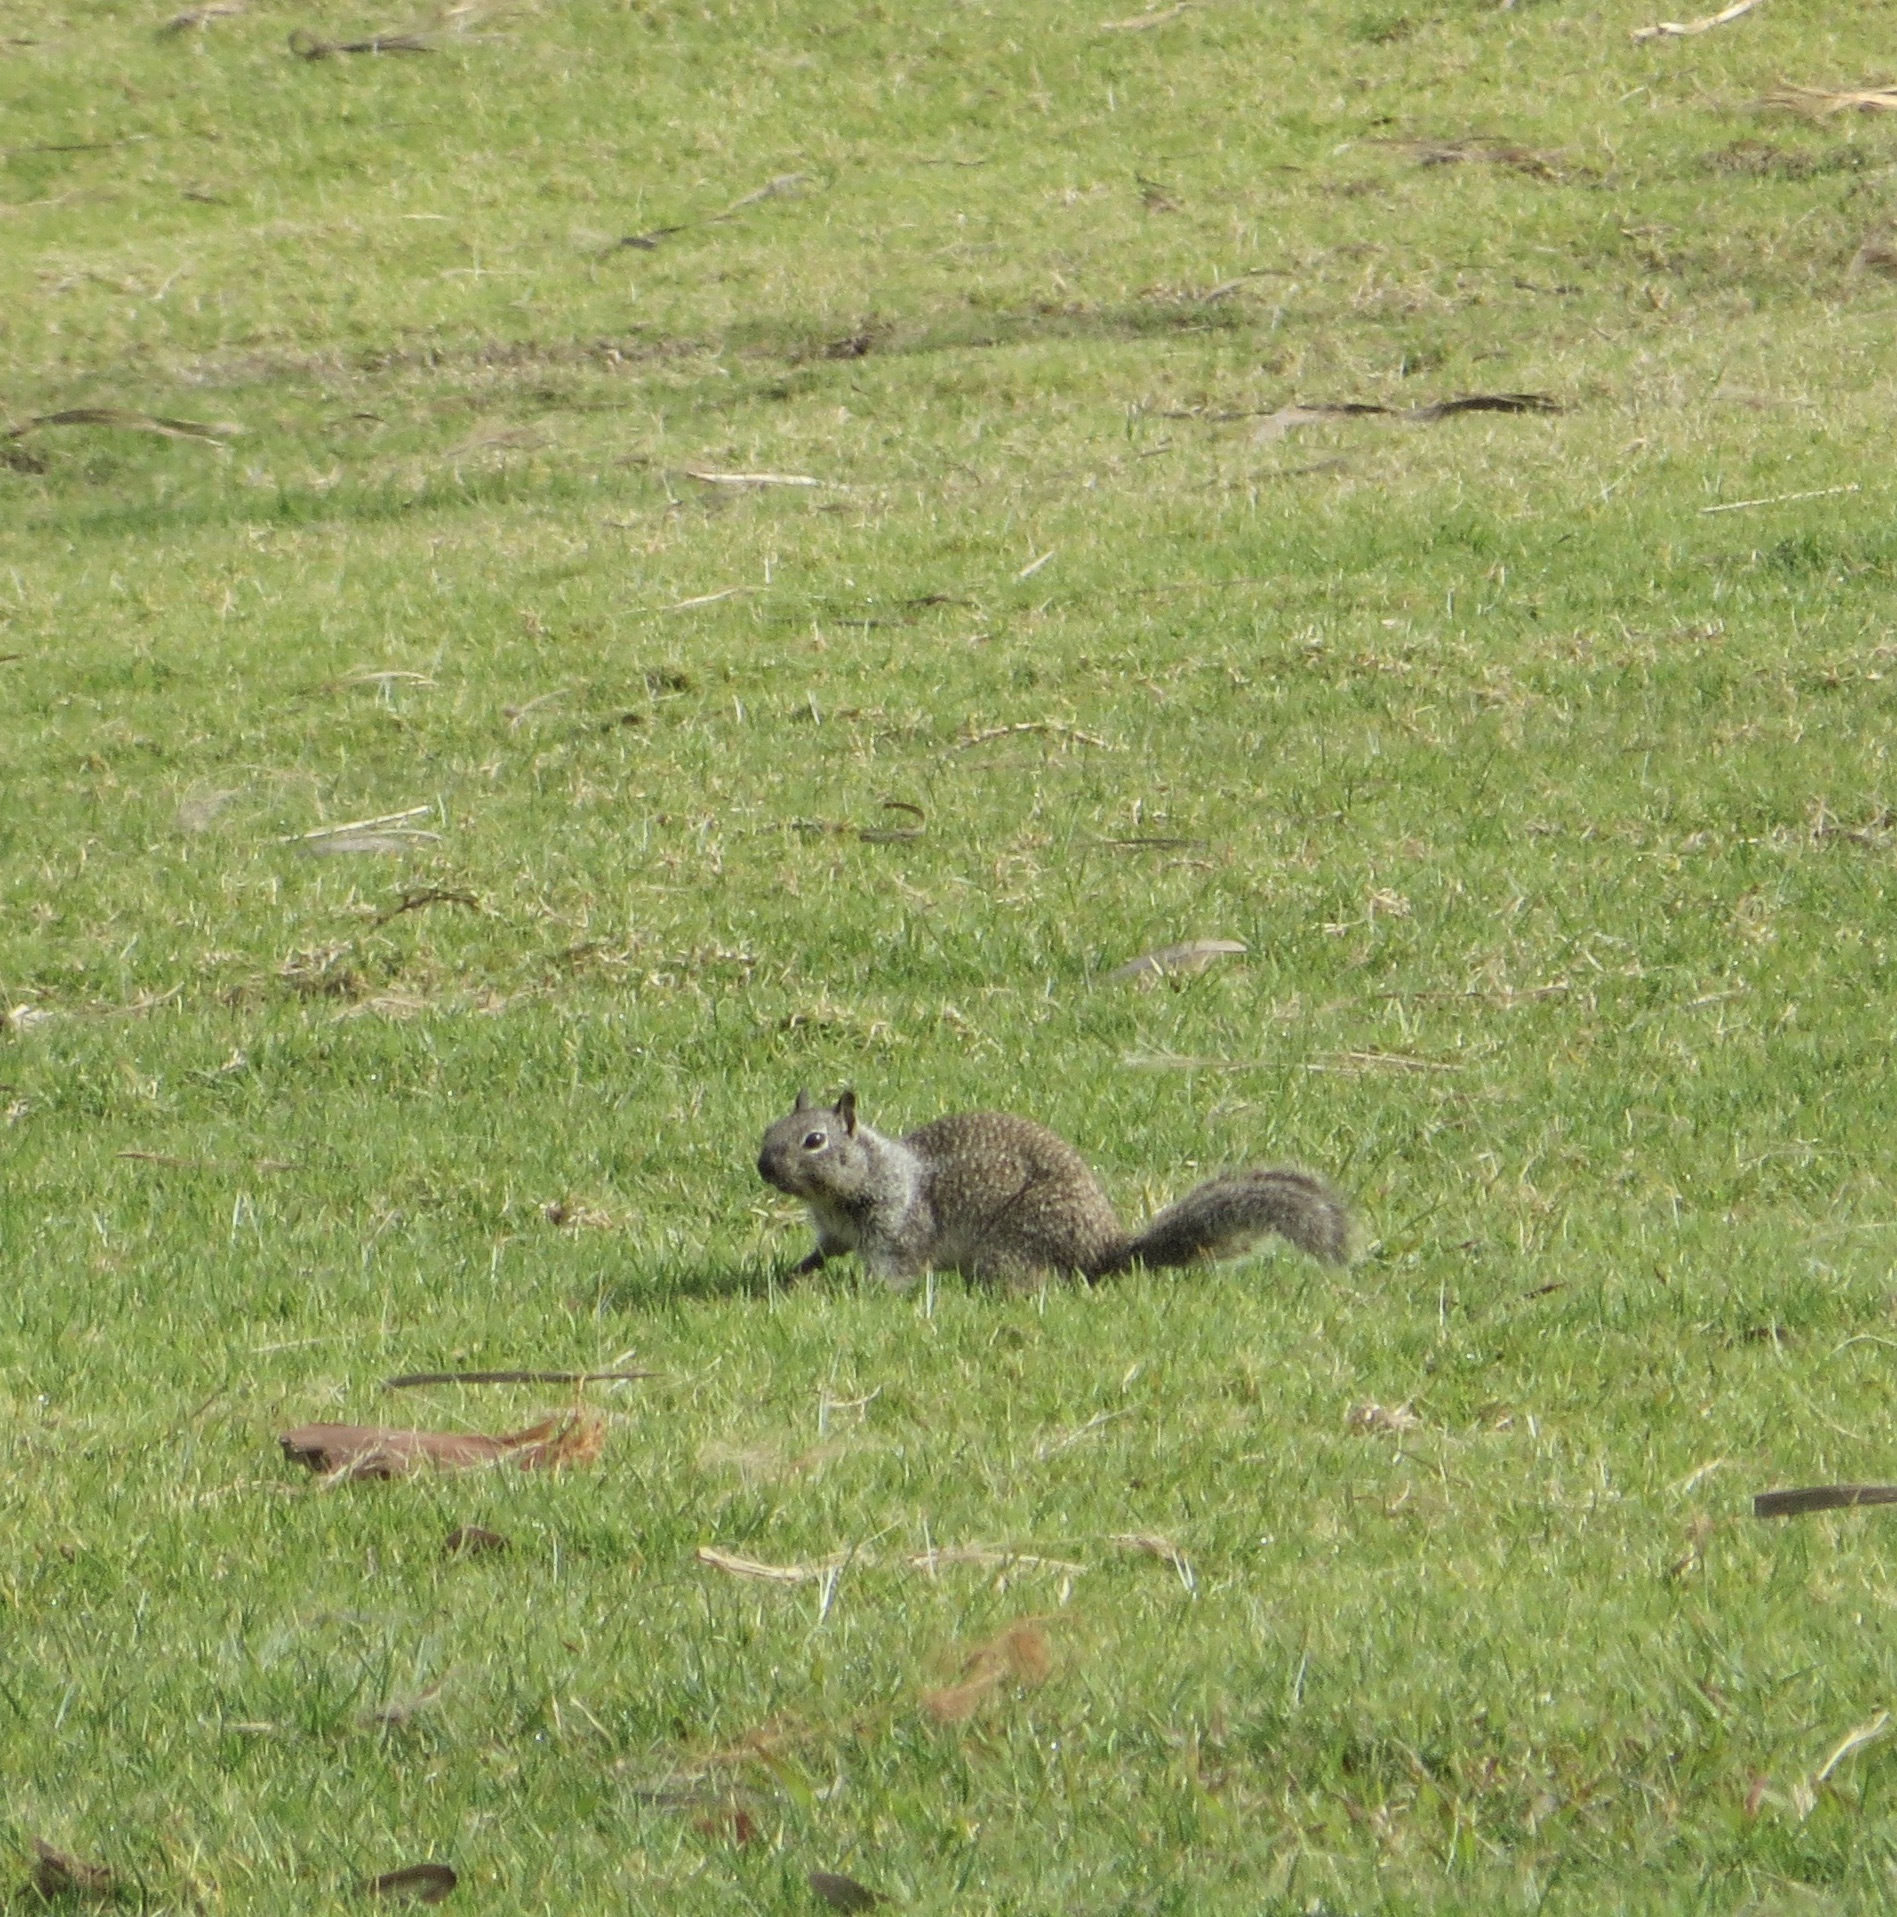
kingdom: Animalia
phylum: Chordata
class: Mammalia
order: Rodentia
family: Sciuridae
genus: Otospermophilus
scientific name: Otospermophilus beecheyi
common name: California ground squirrel
